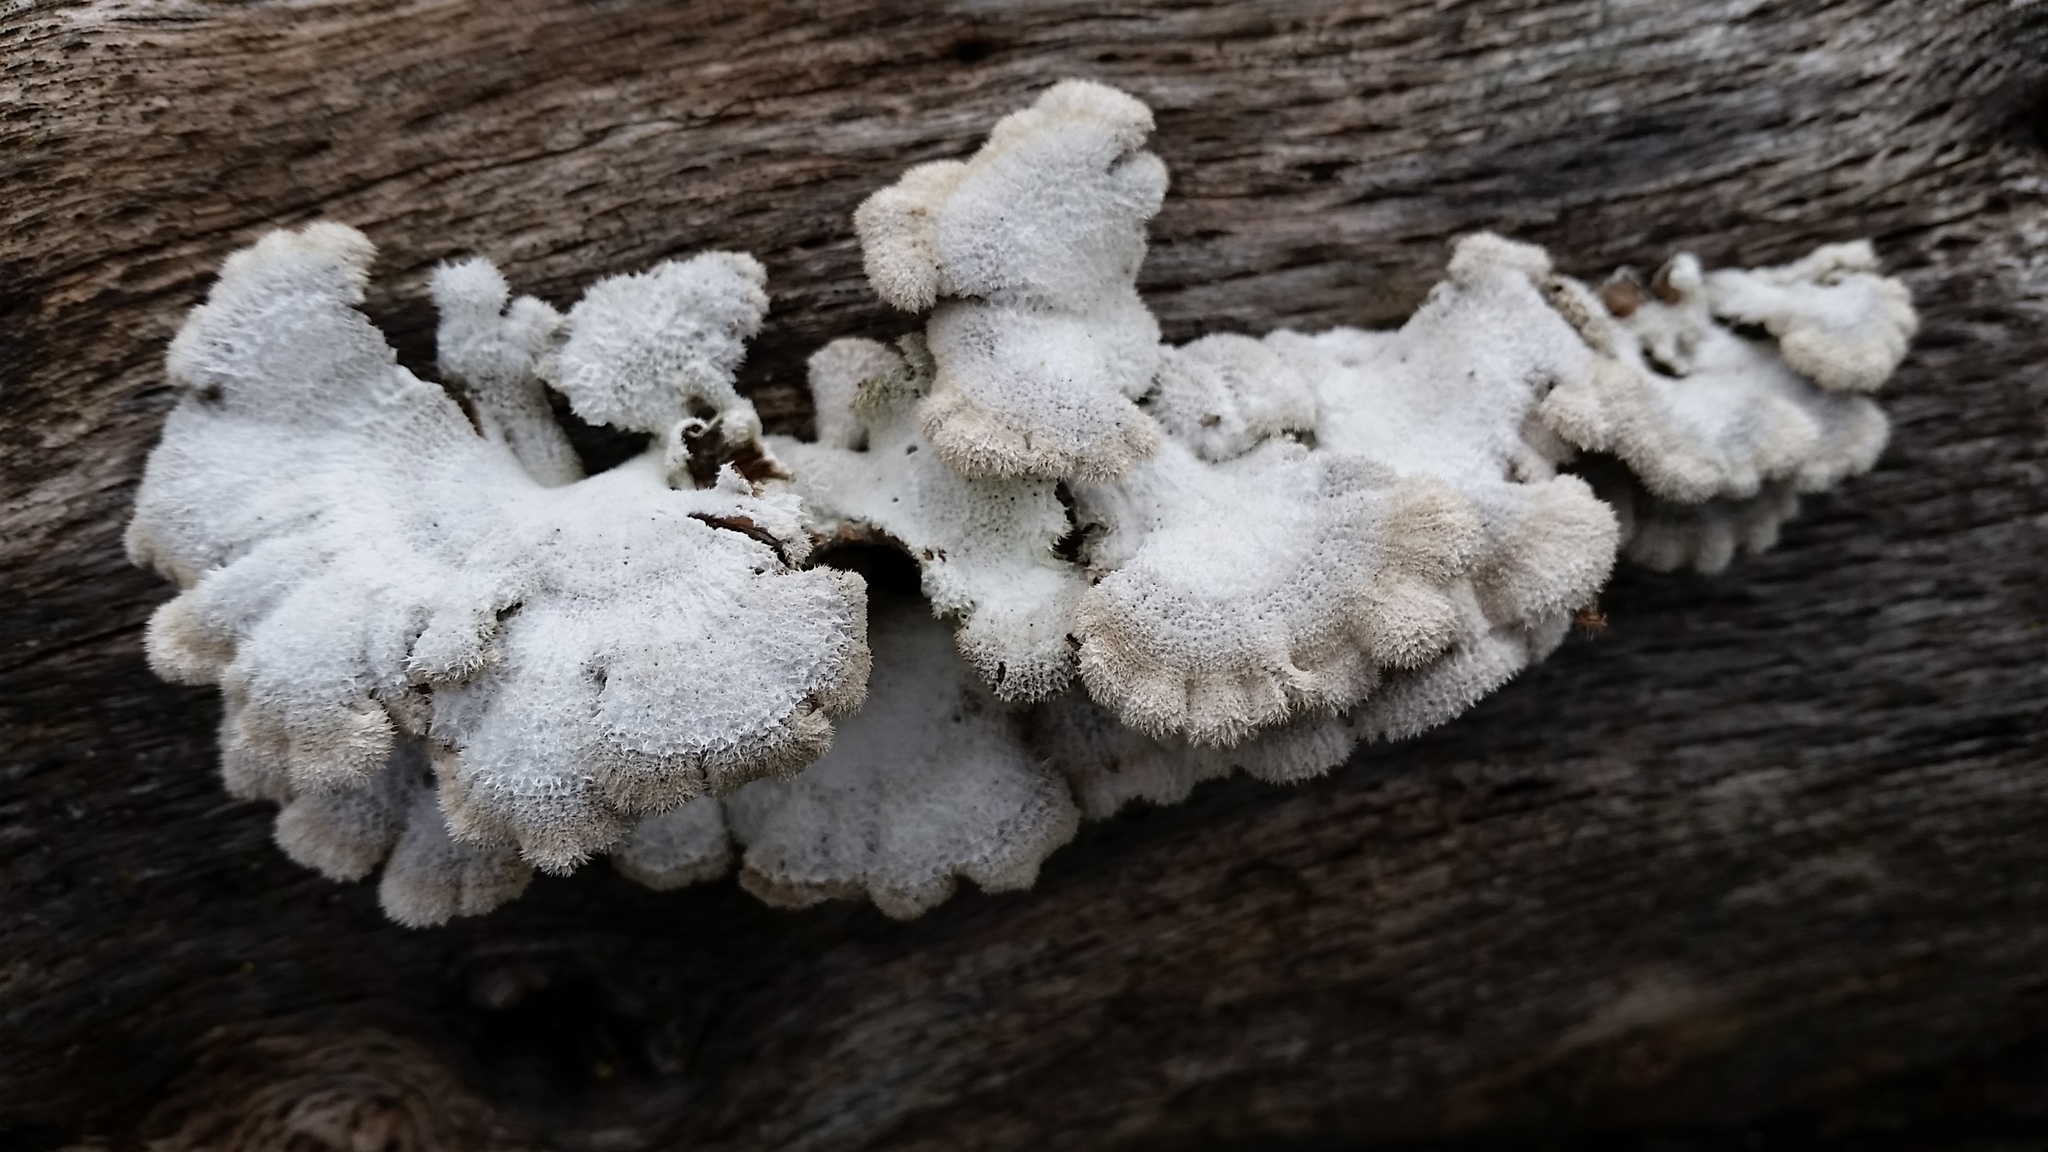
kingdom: Fungi
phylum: Basidiomycota
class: Agaricomycetes
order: Agaricales
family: Schizophyllaceae
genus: Schizophyllum
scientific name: Schizophyllum commune
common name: Common porecrust
